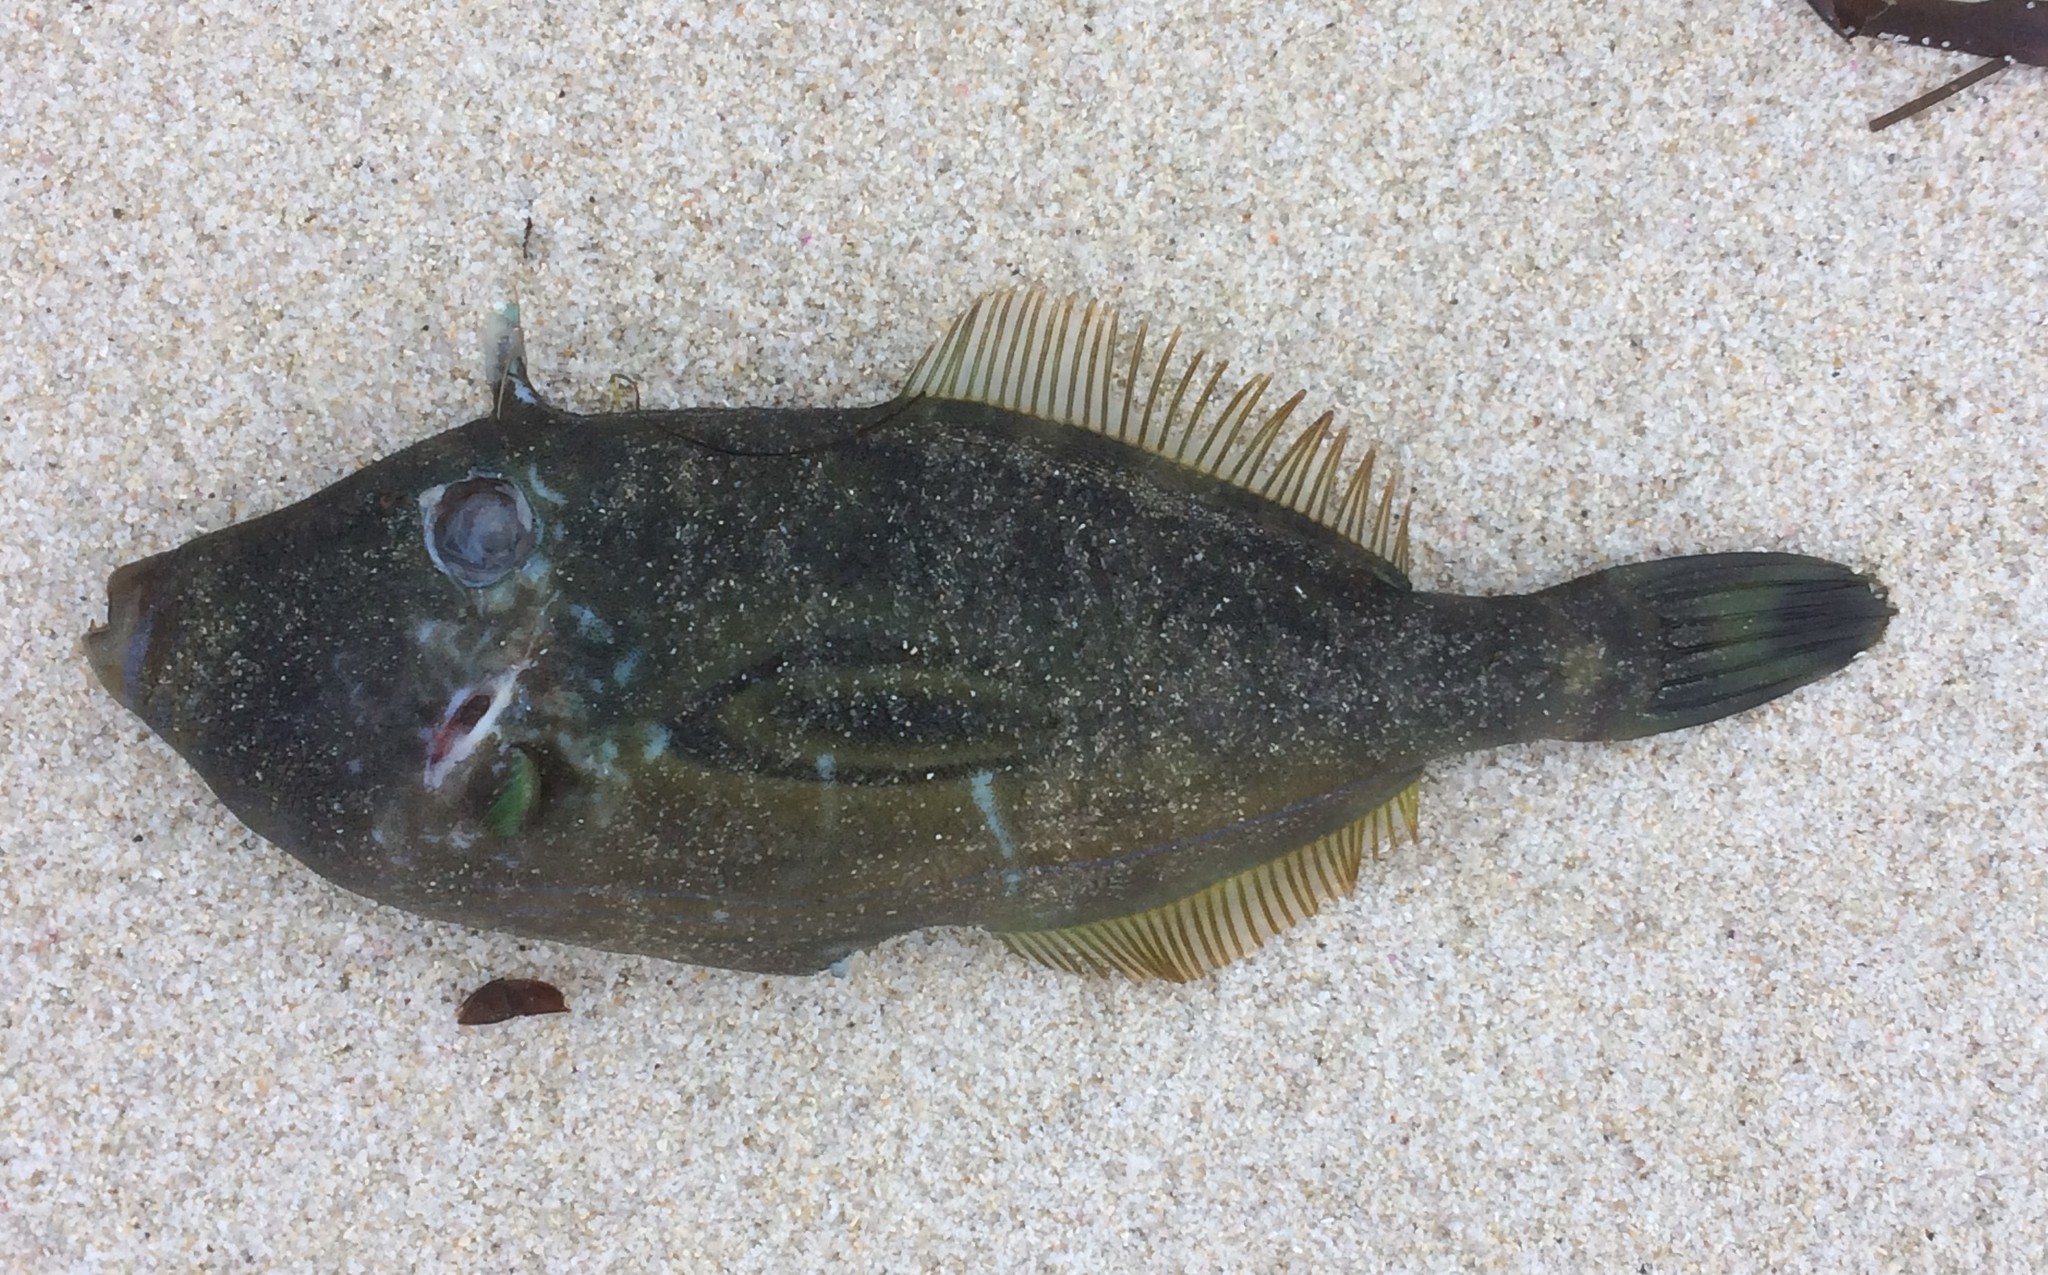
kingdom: Animalia
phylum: Chordata
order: Tetraodontiformes
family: Monacanthidae
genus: Meuschenia
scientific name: Meuschenia hippocrepis
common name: Horse-shoe leatherjacket
